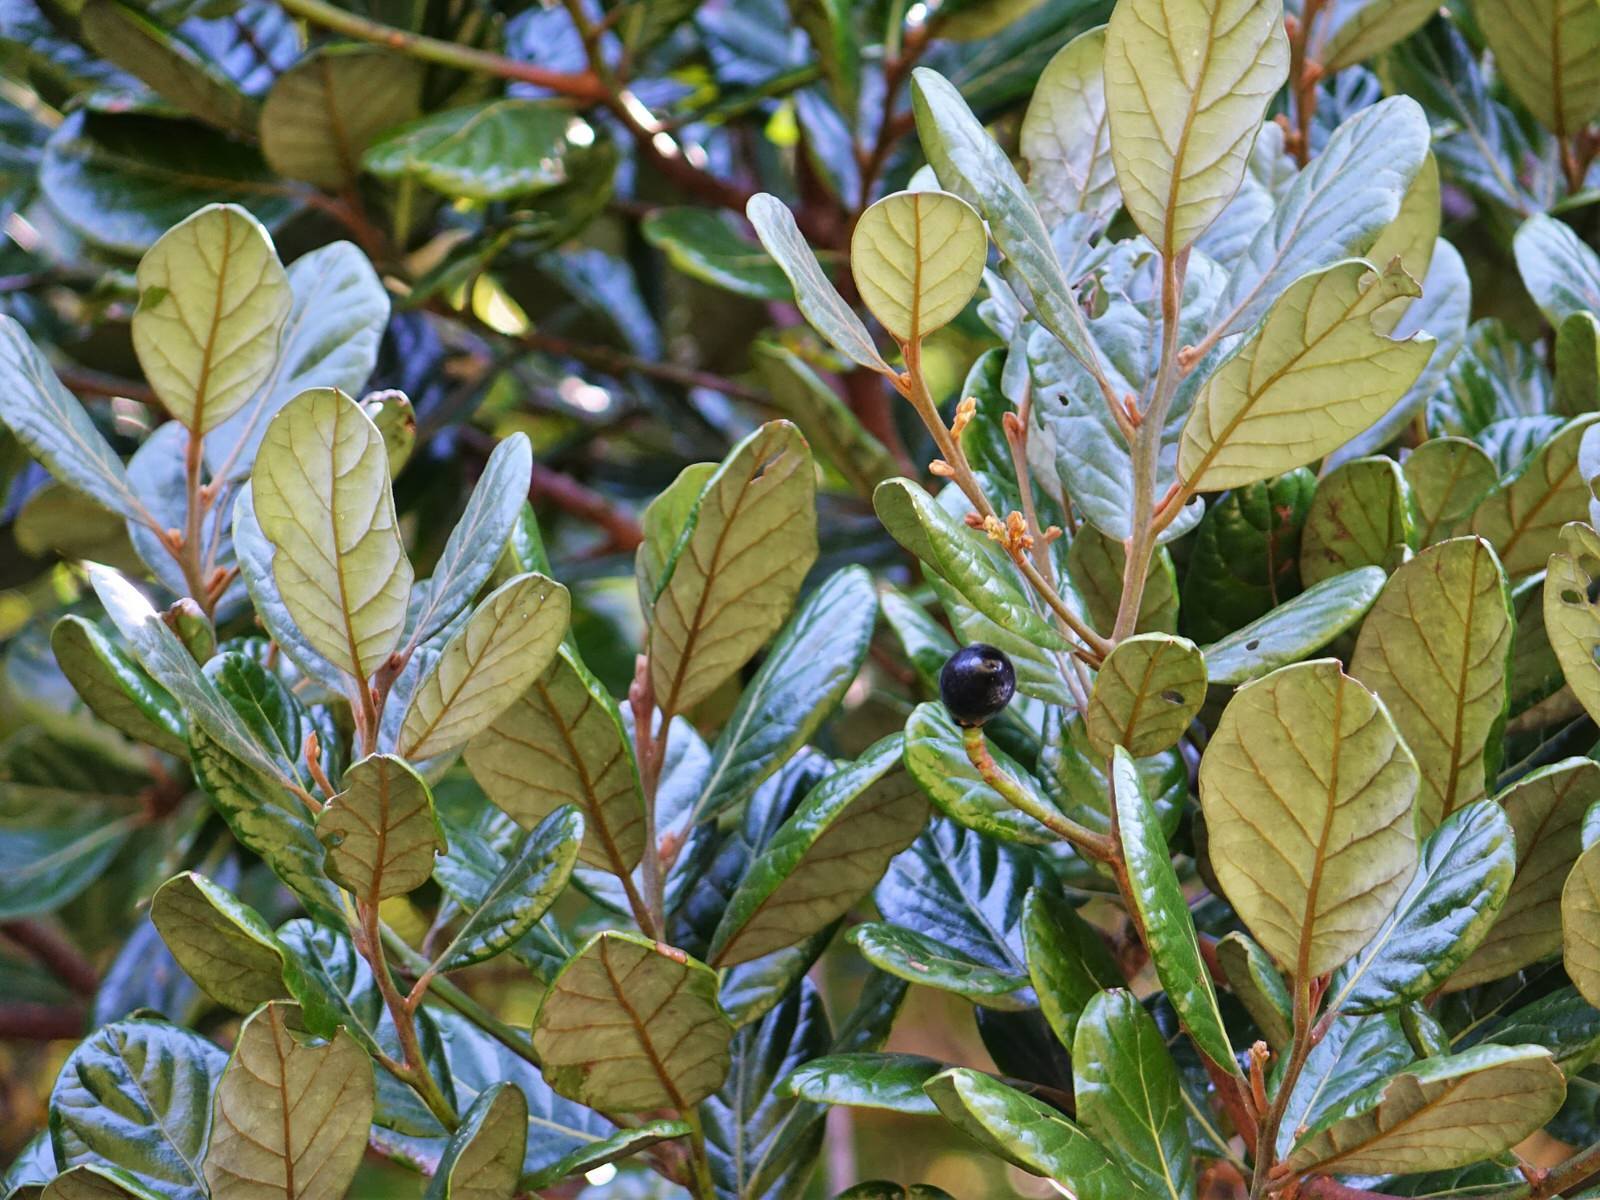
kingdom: Plantae
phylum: Tracheophyta
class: Magnoliopsida
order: Laurales
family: Lauraceae
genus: Beilschmiedia
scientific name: Beilschmiedia tarairi
